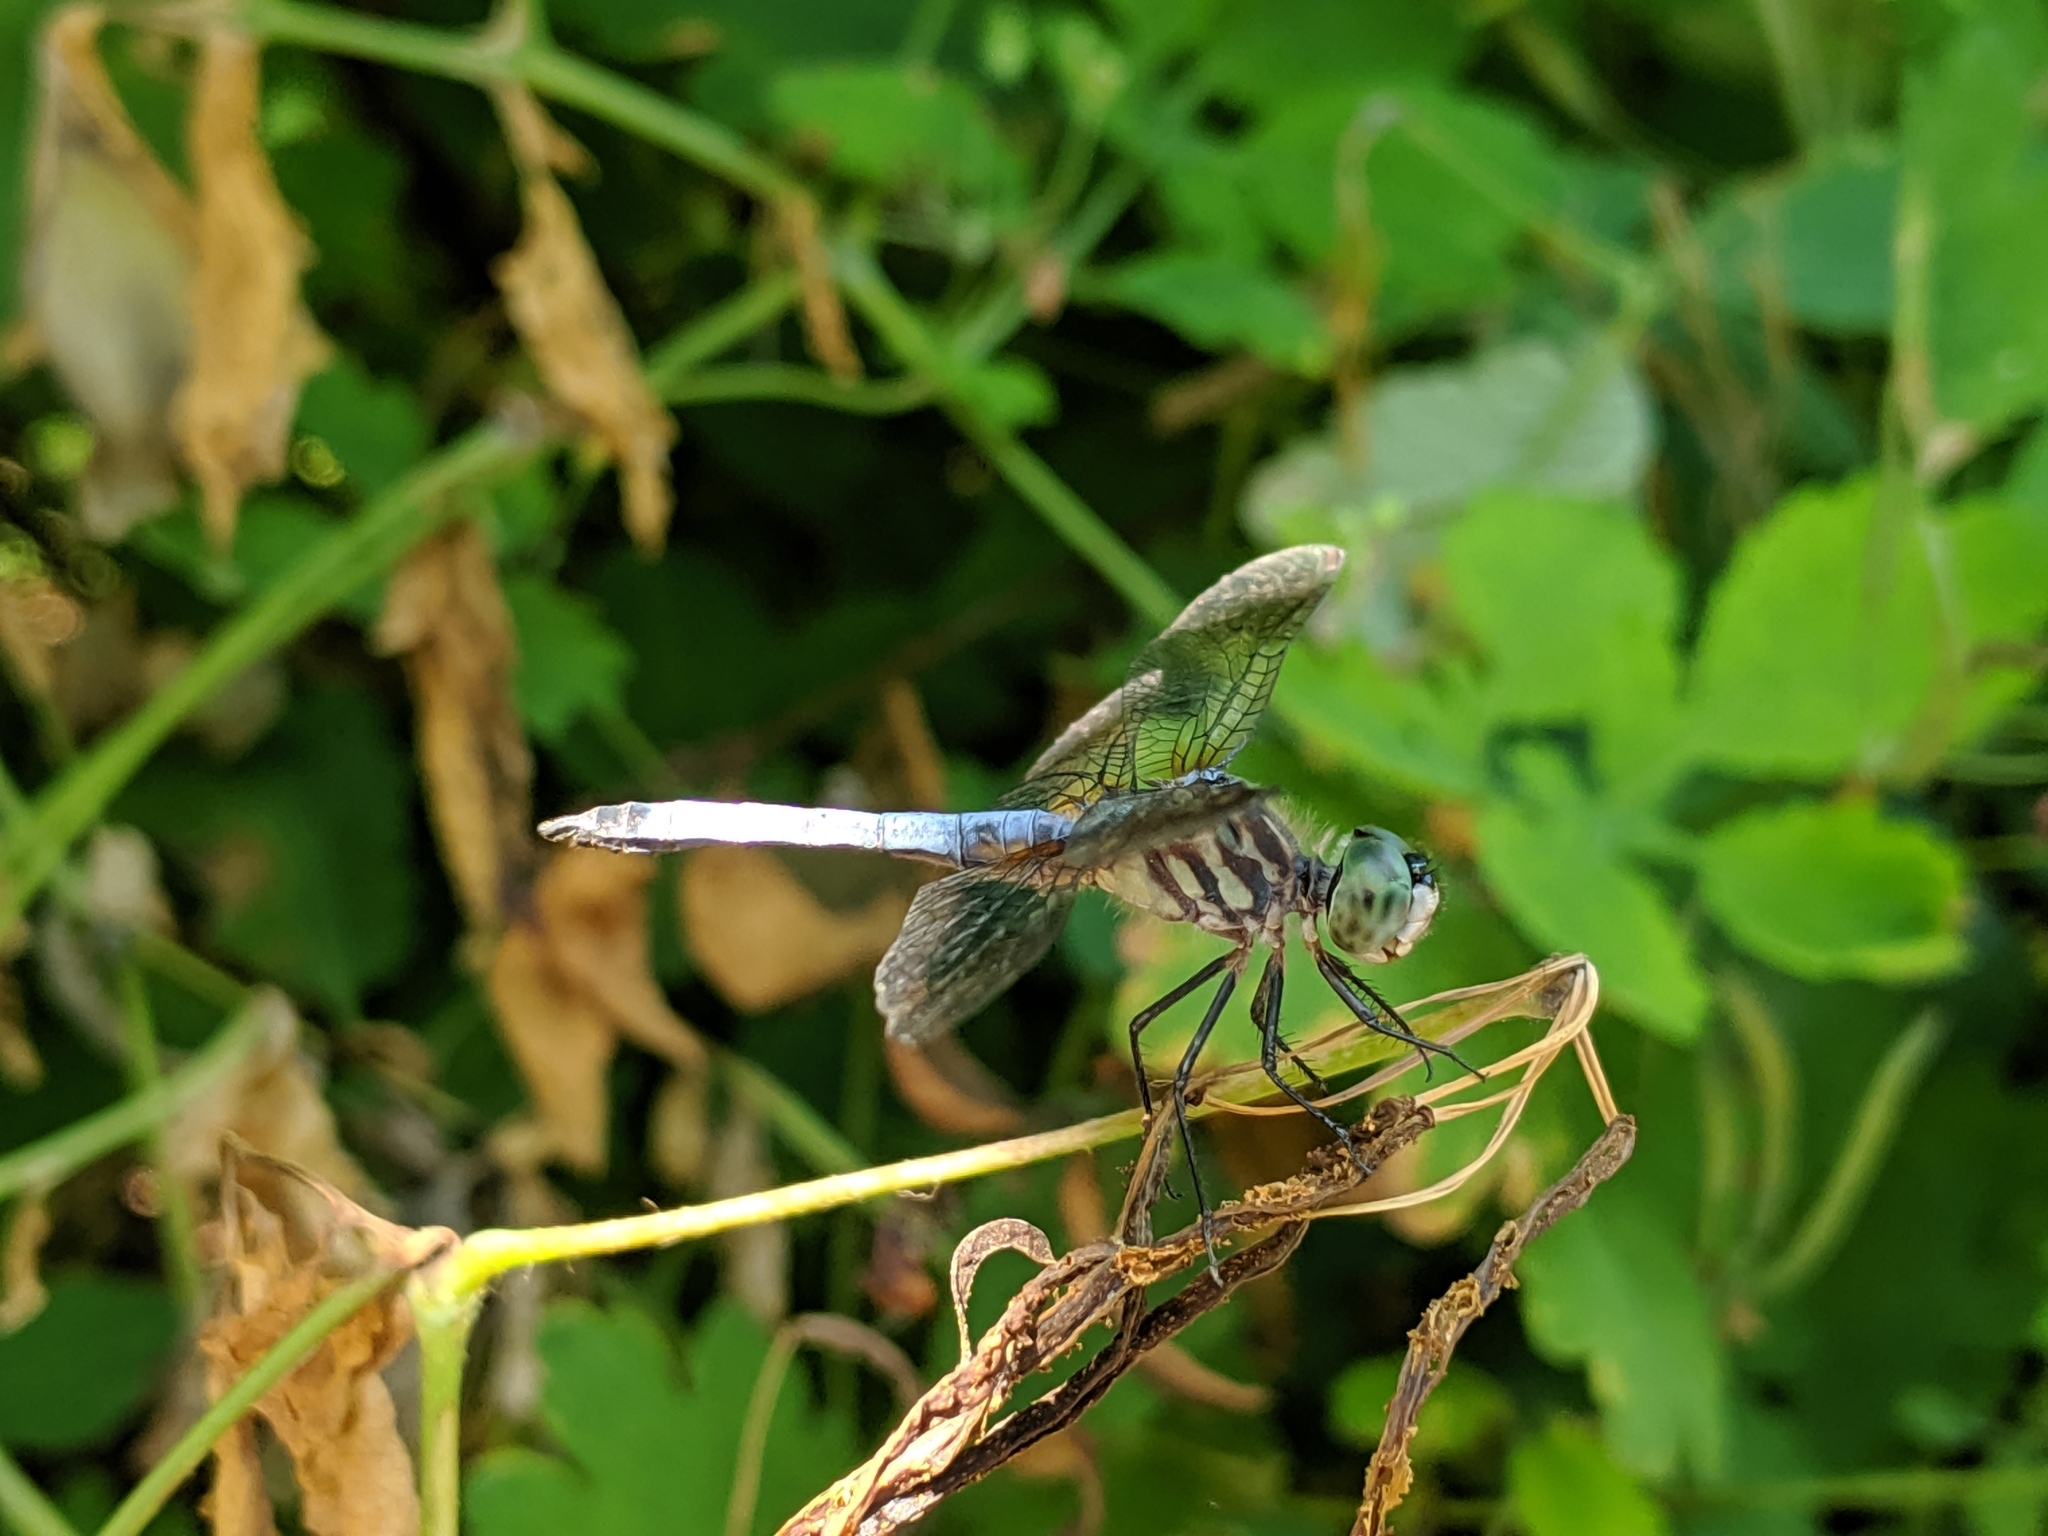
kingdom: Animalia
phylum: Arthropoda
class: Insecta
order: Odonata
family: Libellulidae
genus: Pachydiplax
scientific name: Pachydiplax longipennis
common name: Blue dasher
